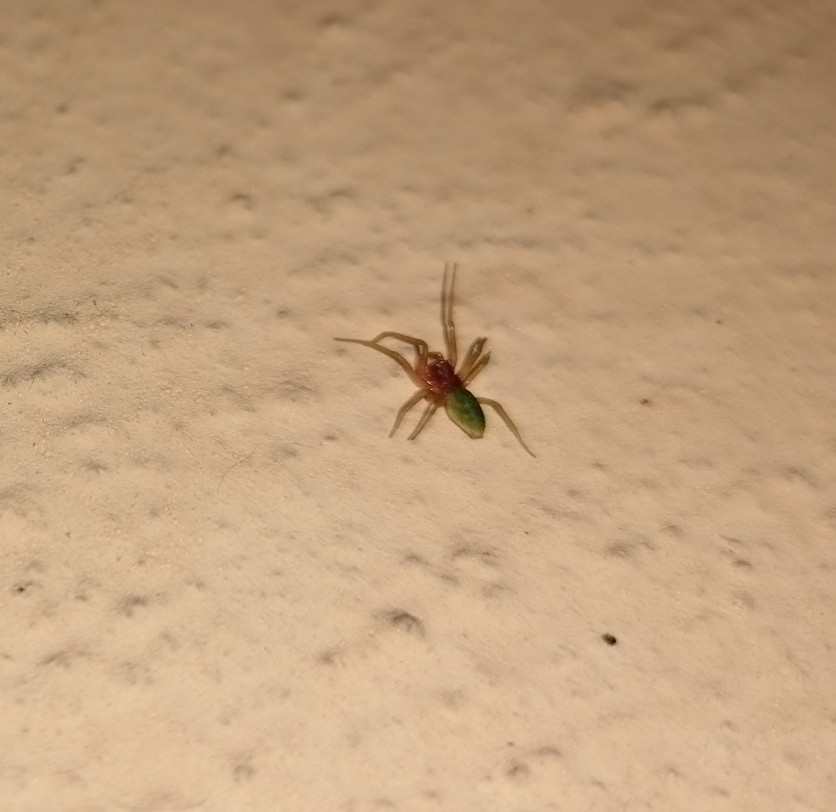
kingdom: Animalia
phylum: Arthropoda
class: Arachnida
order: Araneae
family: Dictynidae
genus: Nigma
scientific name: Nigma walckenaeri
